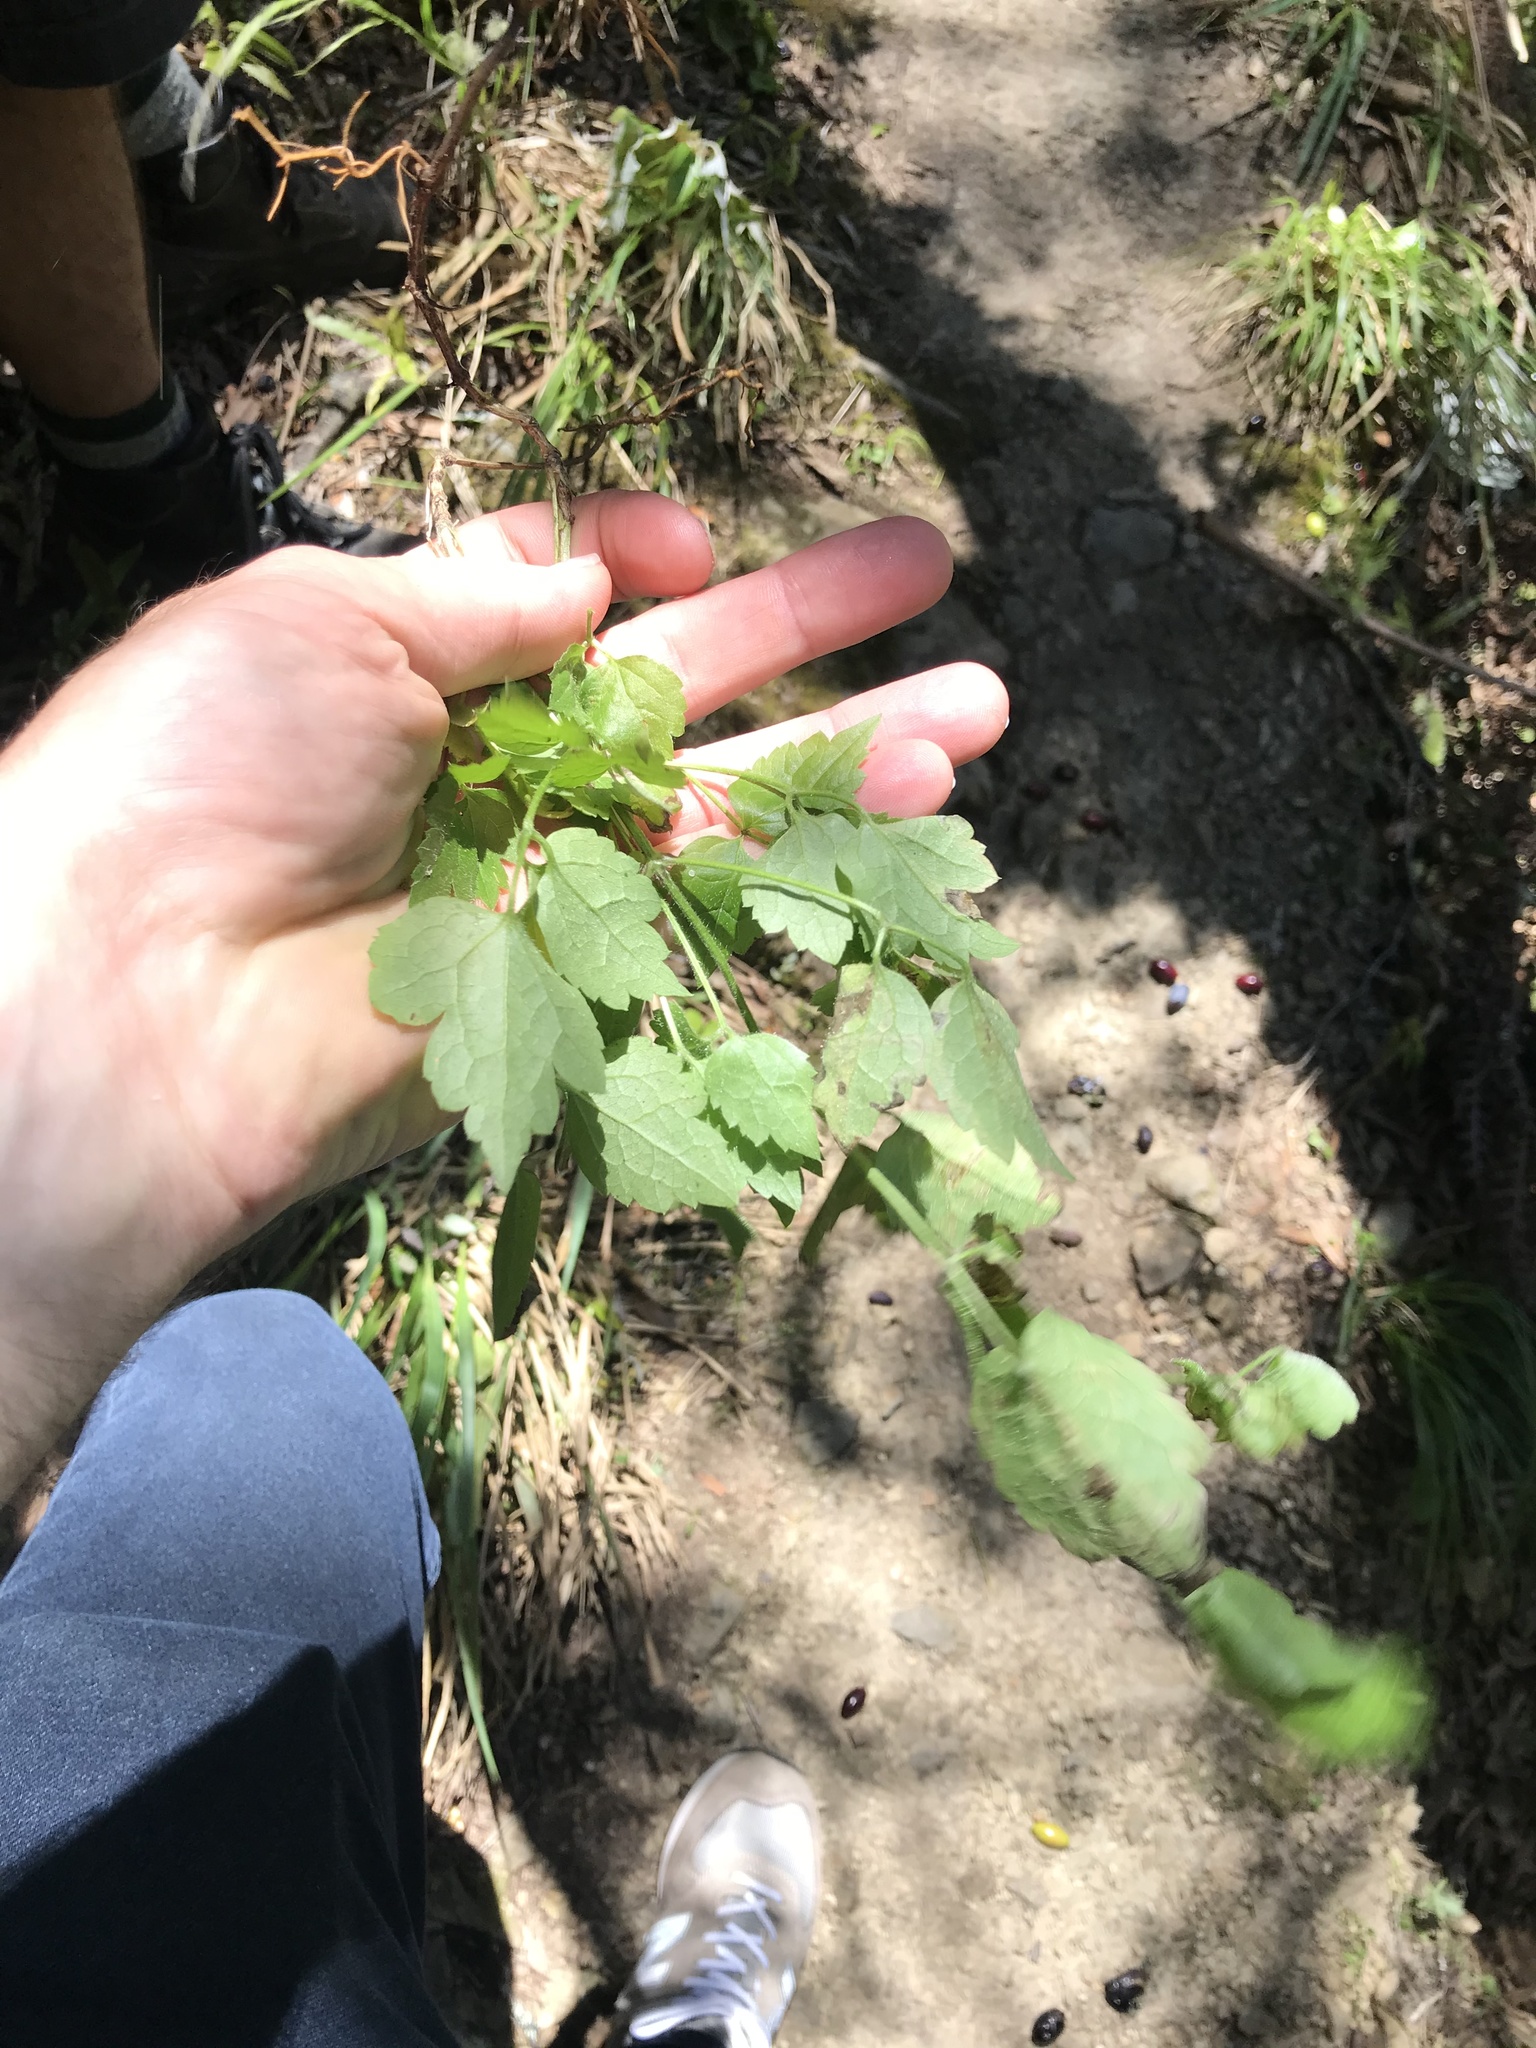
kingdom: Plantae
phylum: Tracheophyta
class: Magnoliopsida
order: Ranunculales
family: Ranunculaceae
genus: Clematis
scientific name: Clematis vitalba
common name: Evergreen clematis
